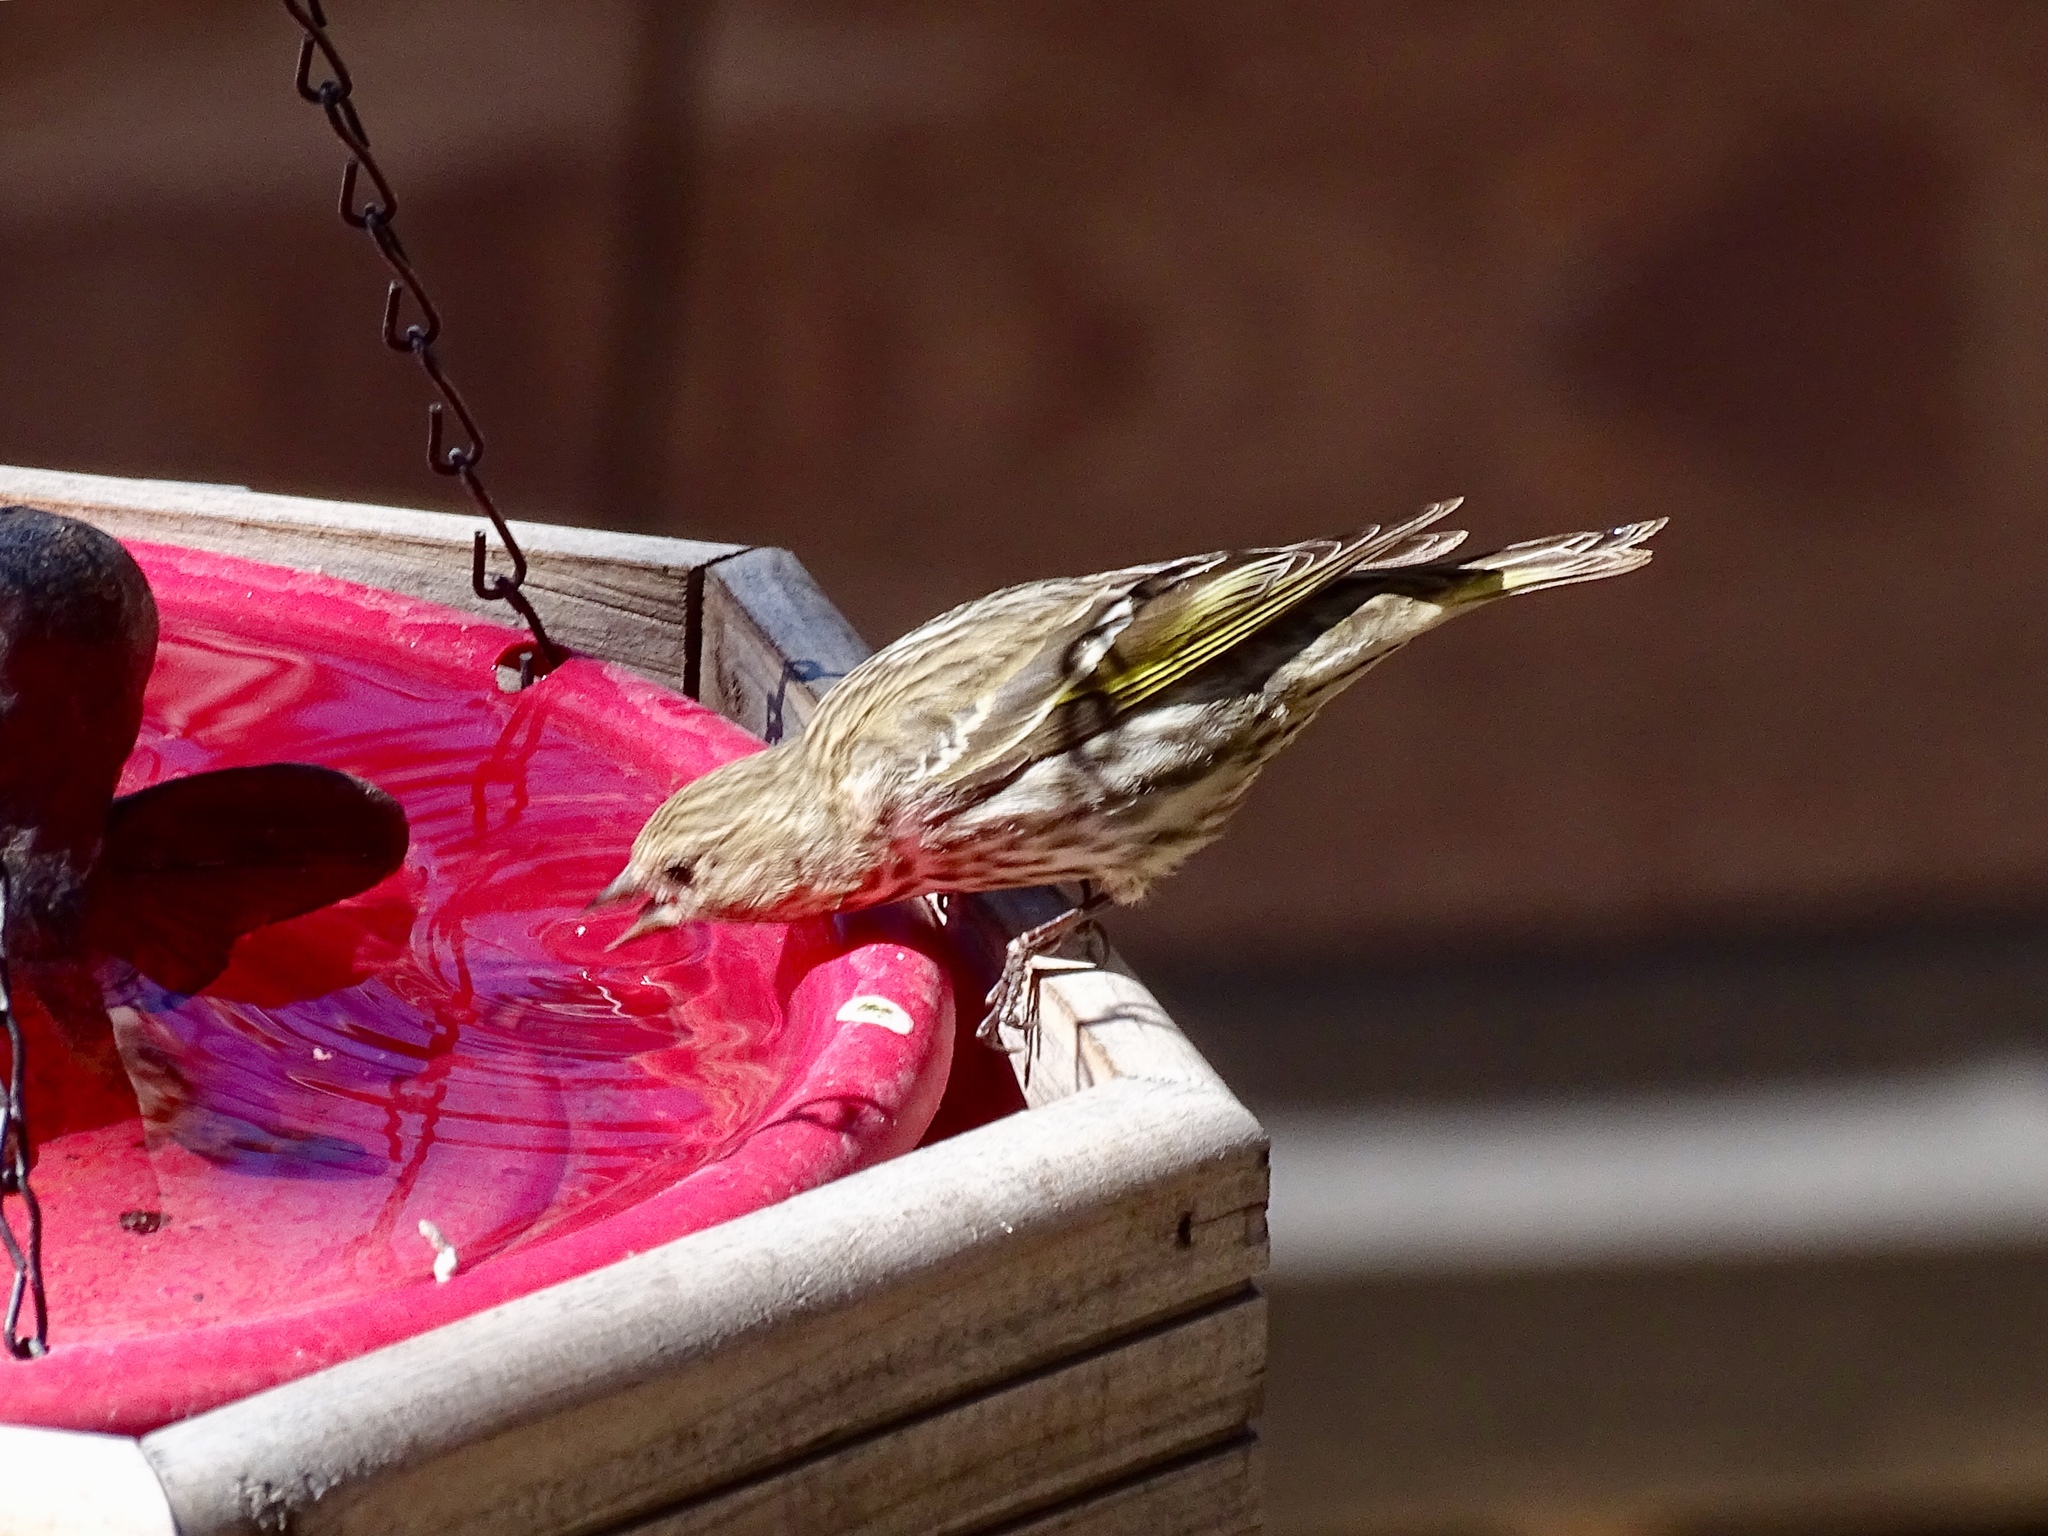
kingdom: Animalia
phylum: Chordata
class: Aves
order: Passeriformes
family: Fringillidae
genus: Spinus
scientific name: Spinus pinus
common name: Pine siskin
